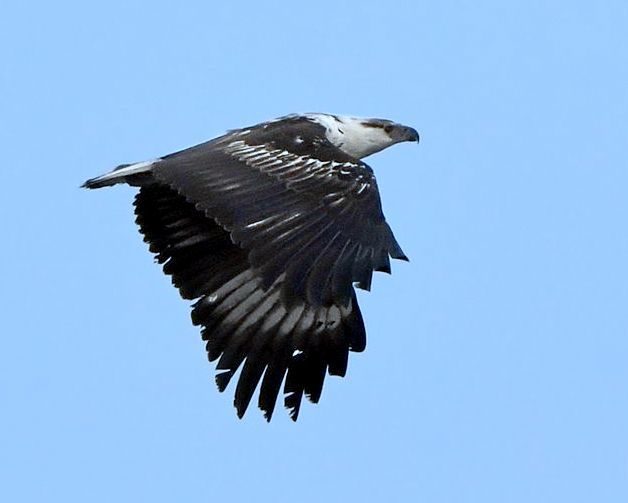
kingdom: Animalia
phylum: Chordata
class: Aves
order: Accipitriformes
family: Accipitridae
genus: Haliaeetus
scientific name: Haliaeetus vocifer
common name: African fish eagle
